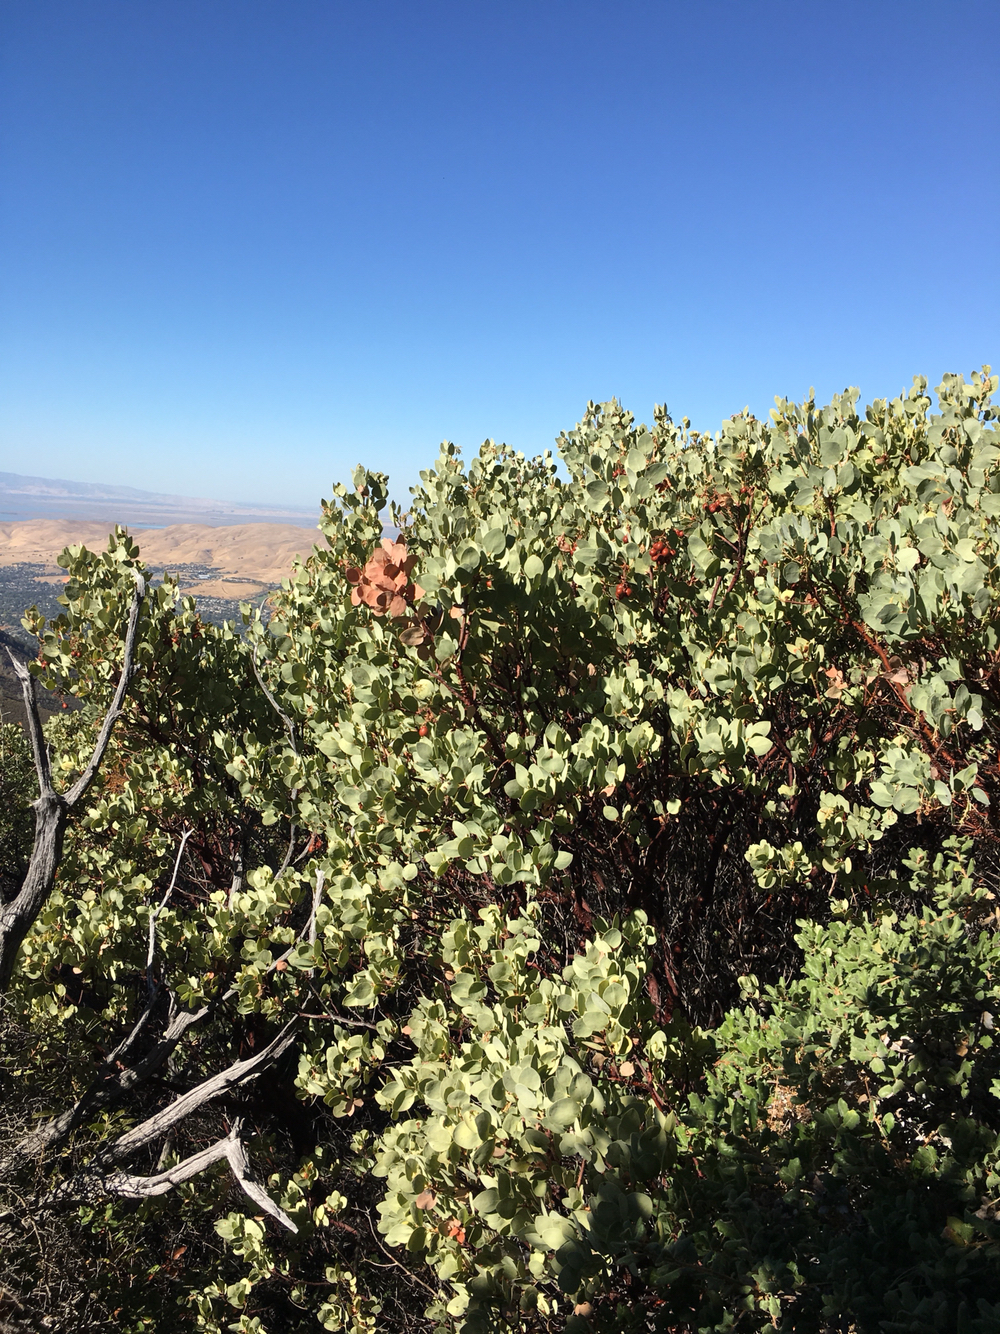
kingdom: Plantae
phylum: Tracheophyta
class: Magnoliopsida
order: Ericales
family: Ericaceae
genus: Arctostaphylos
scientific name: Arctostaphylos glauca
